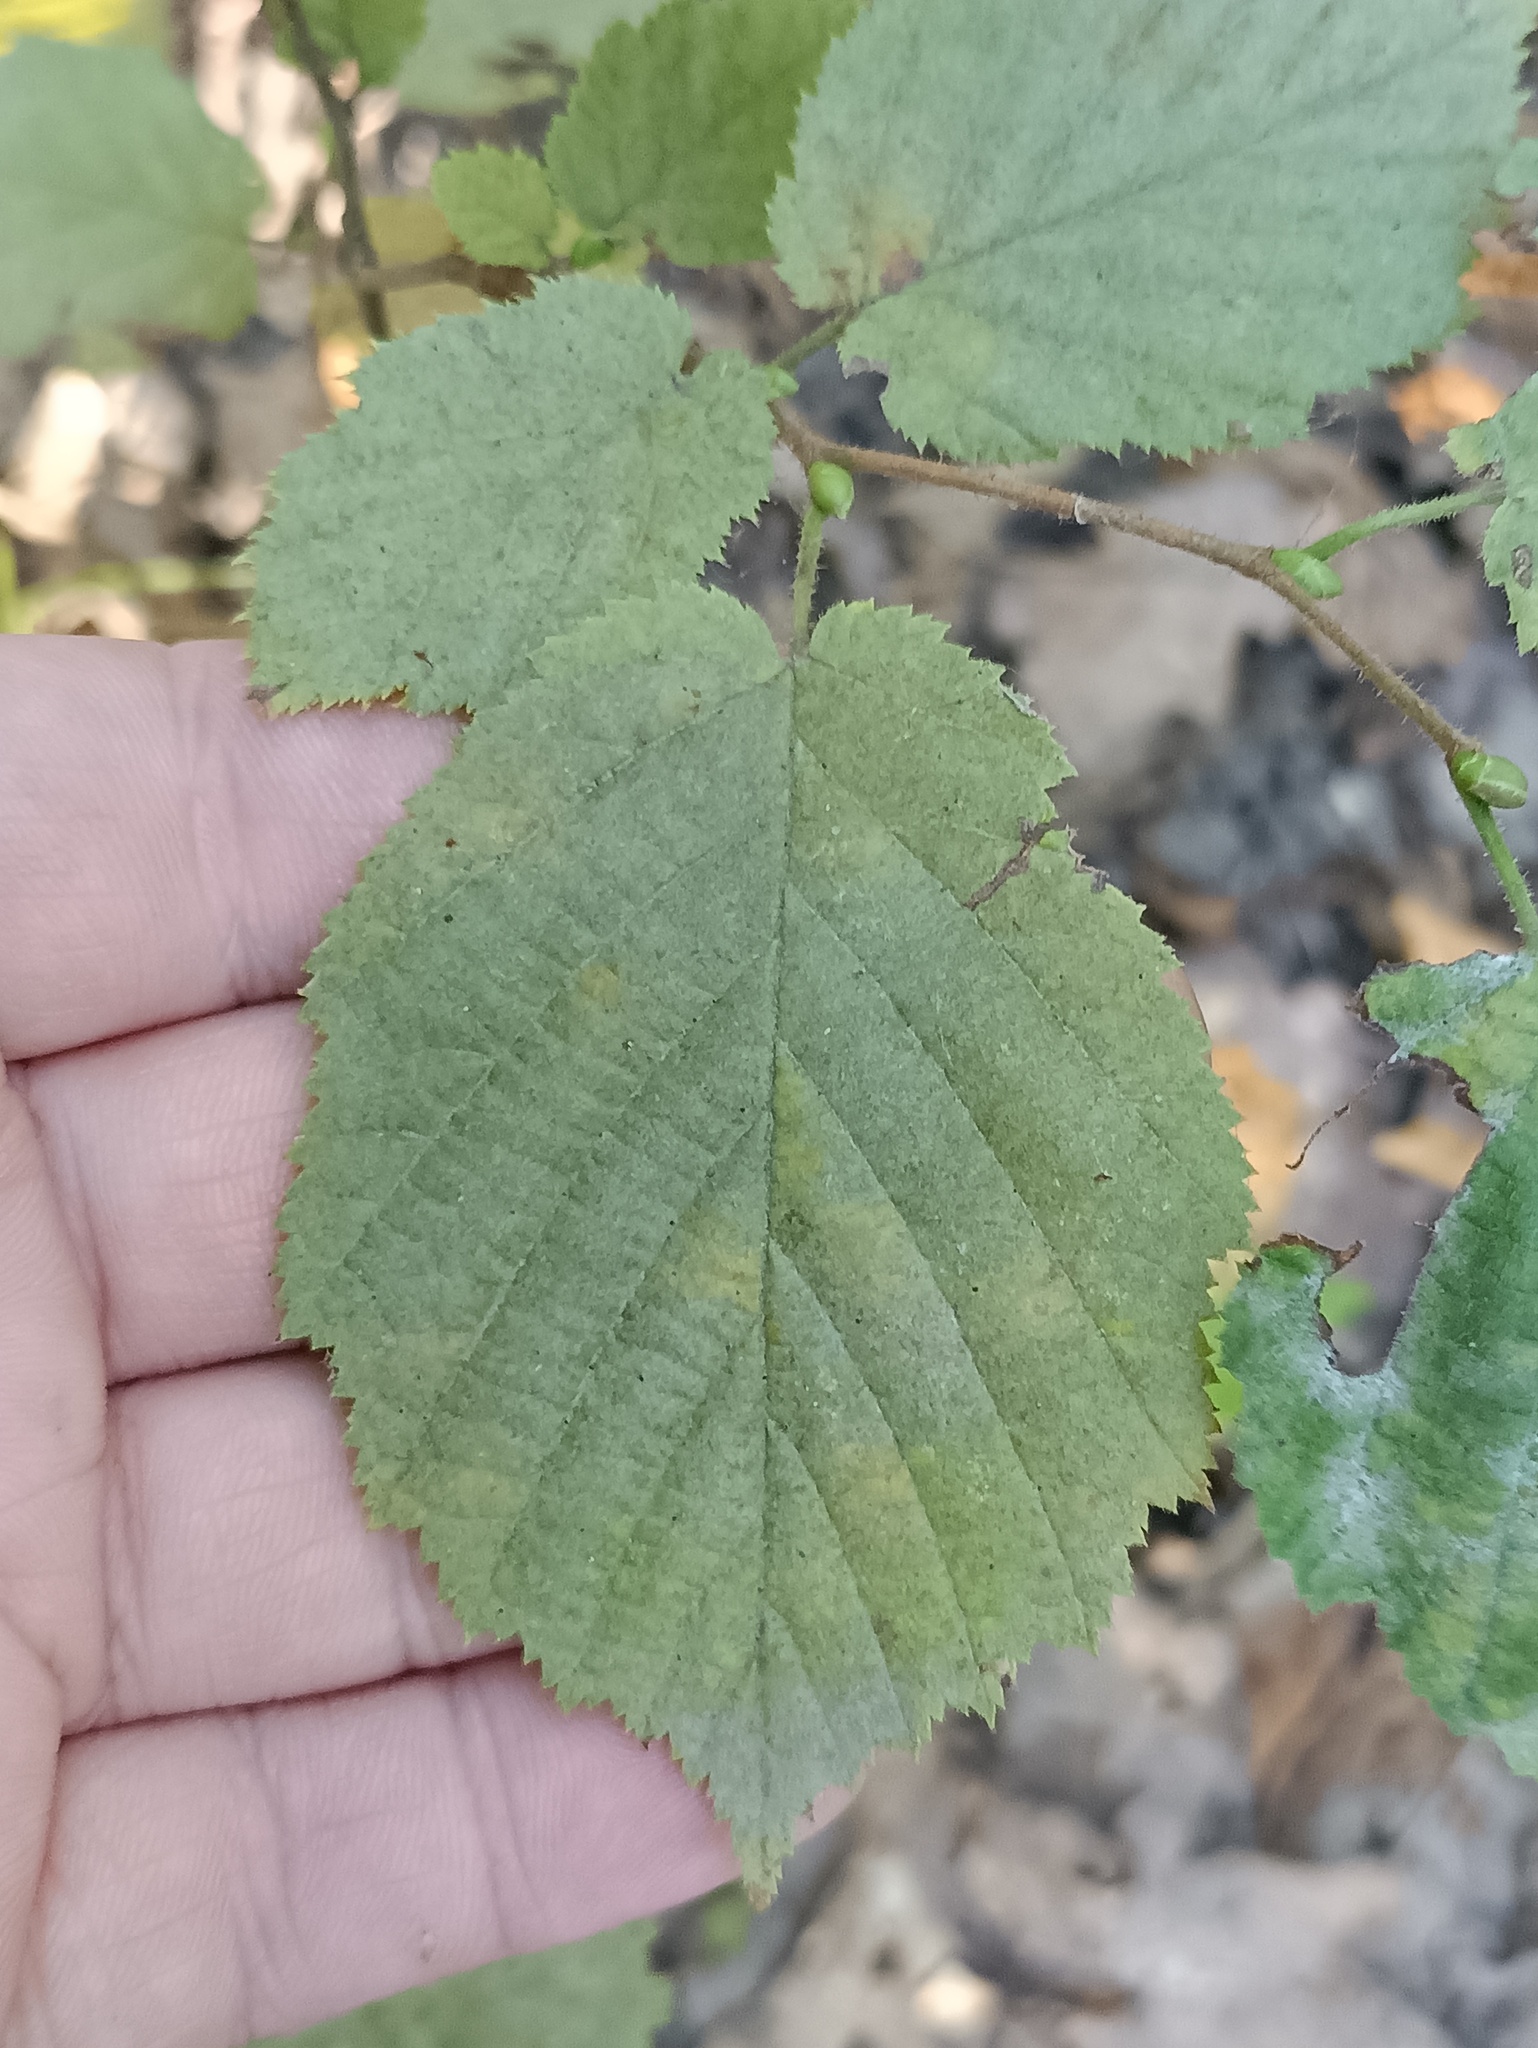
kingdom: Plantae
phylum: Tracheophyta
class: Magnoliopsida
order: Fagales
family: Betulaceae
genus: Corylus
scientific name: Corylus avellana
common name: European hazel
